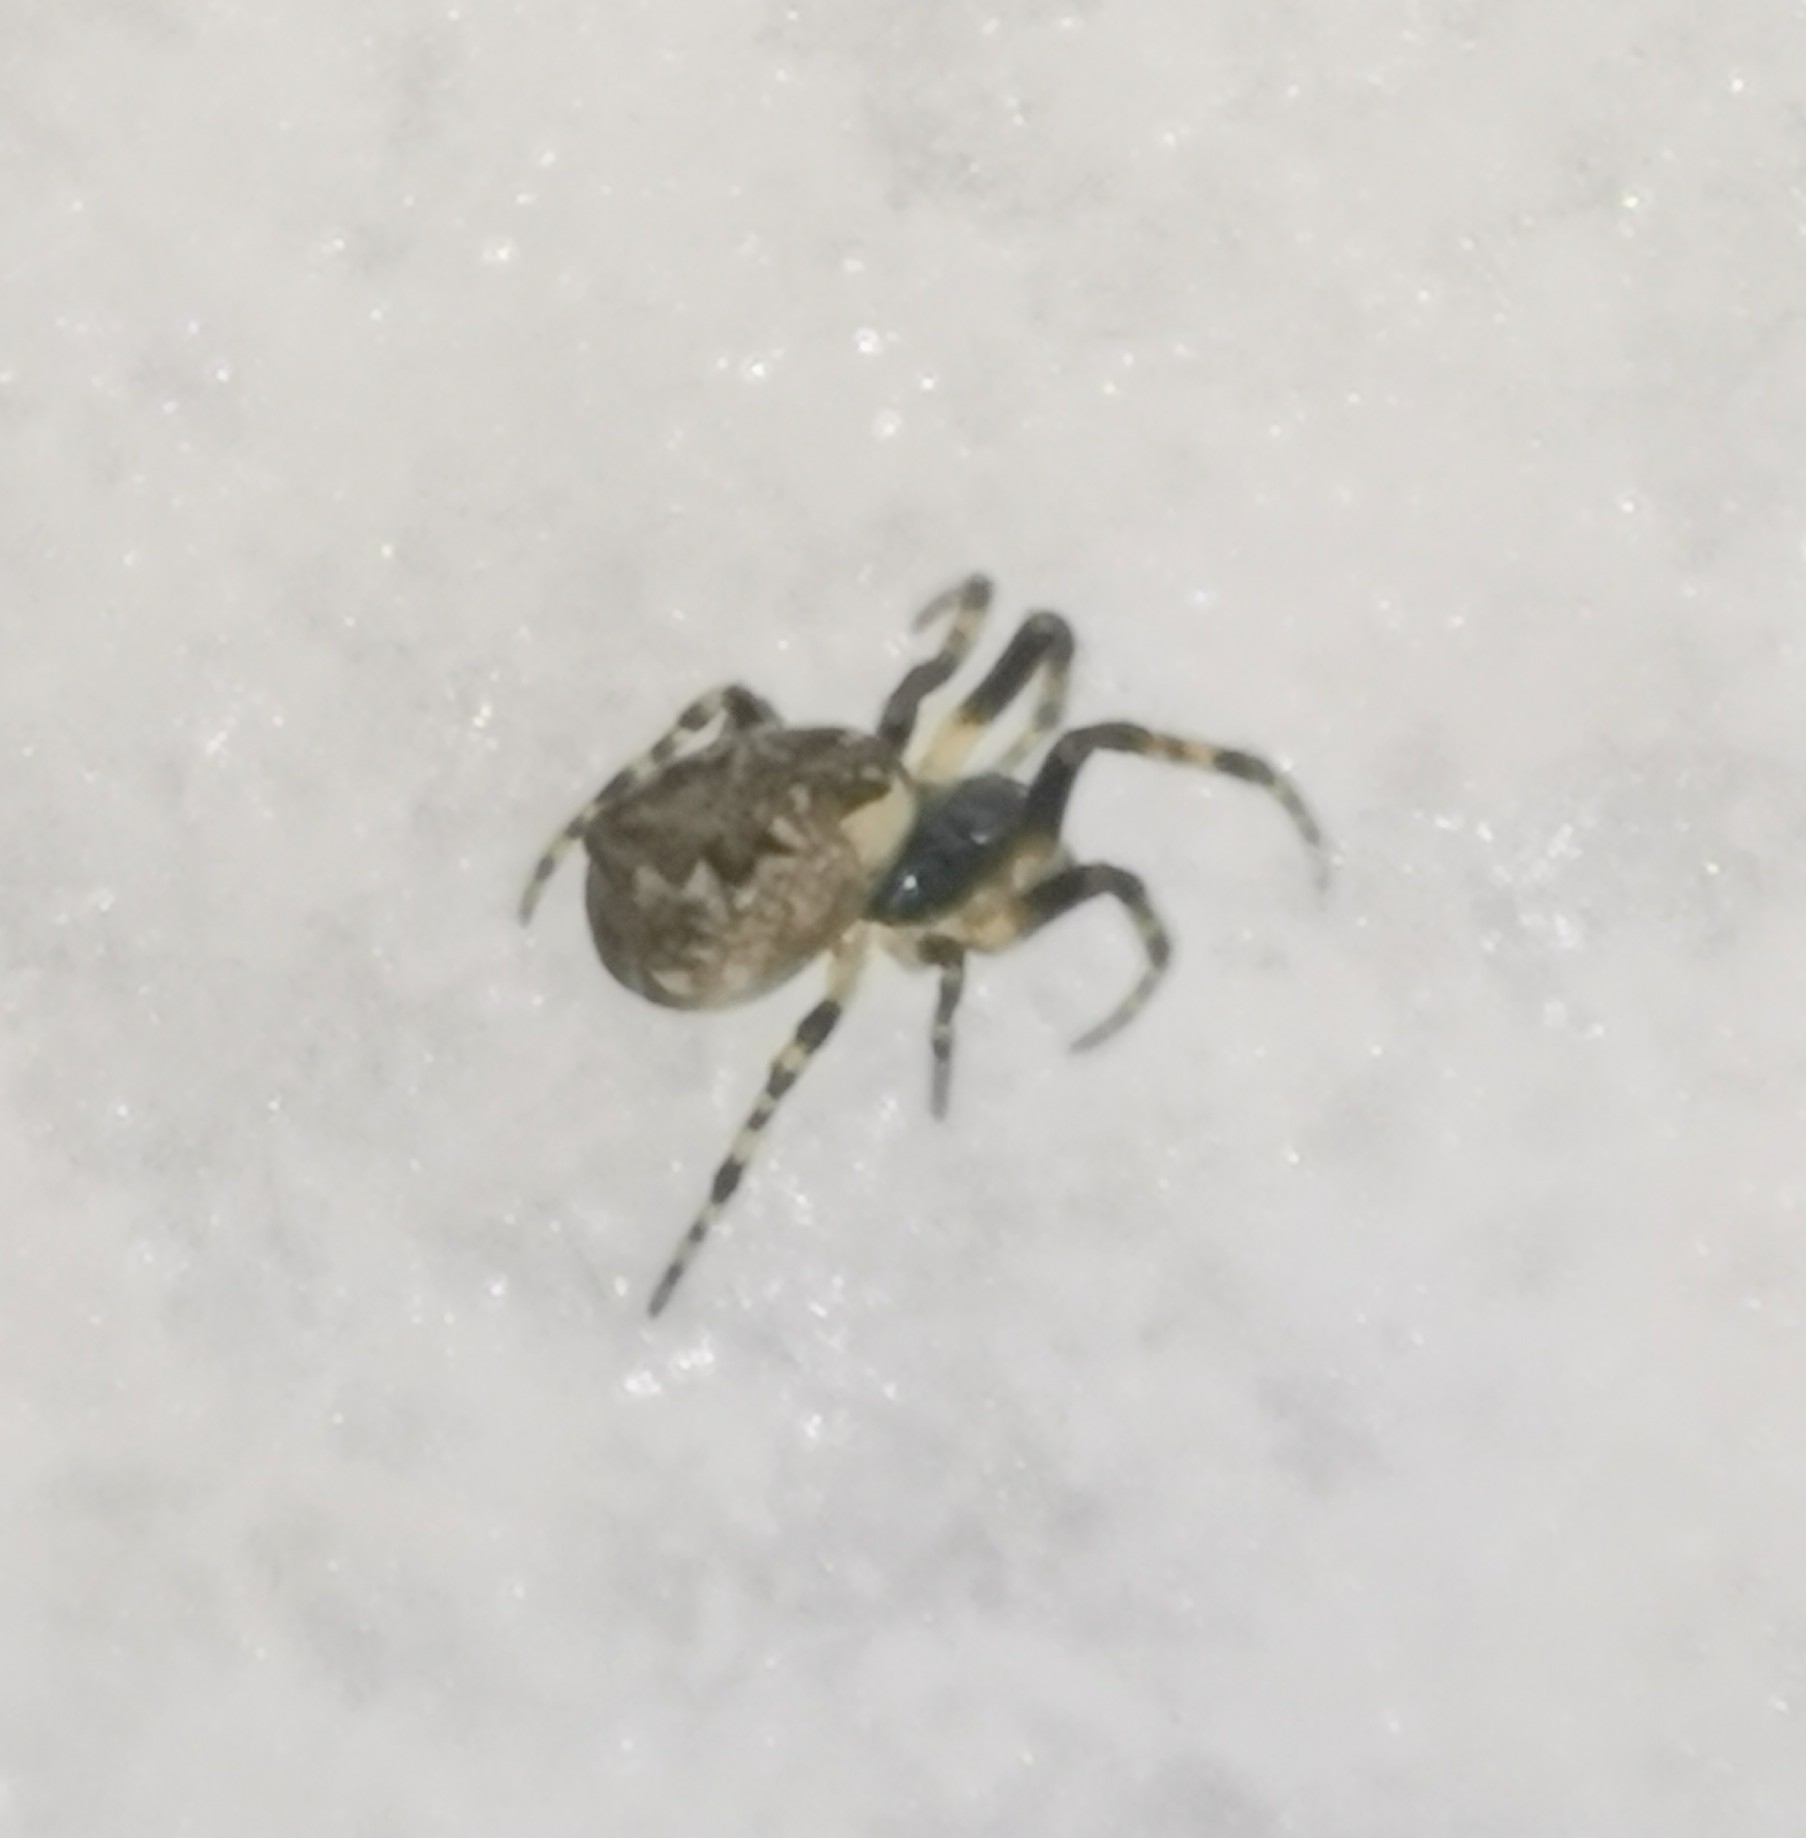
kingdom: Animalia
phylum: Arthropoda
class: Arachnida
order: Araneae
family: Araneidae
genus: Cyclosa
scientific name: Cyclosa conica
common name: Conical trashline orbweaver
